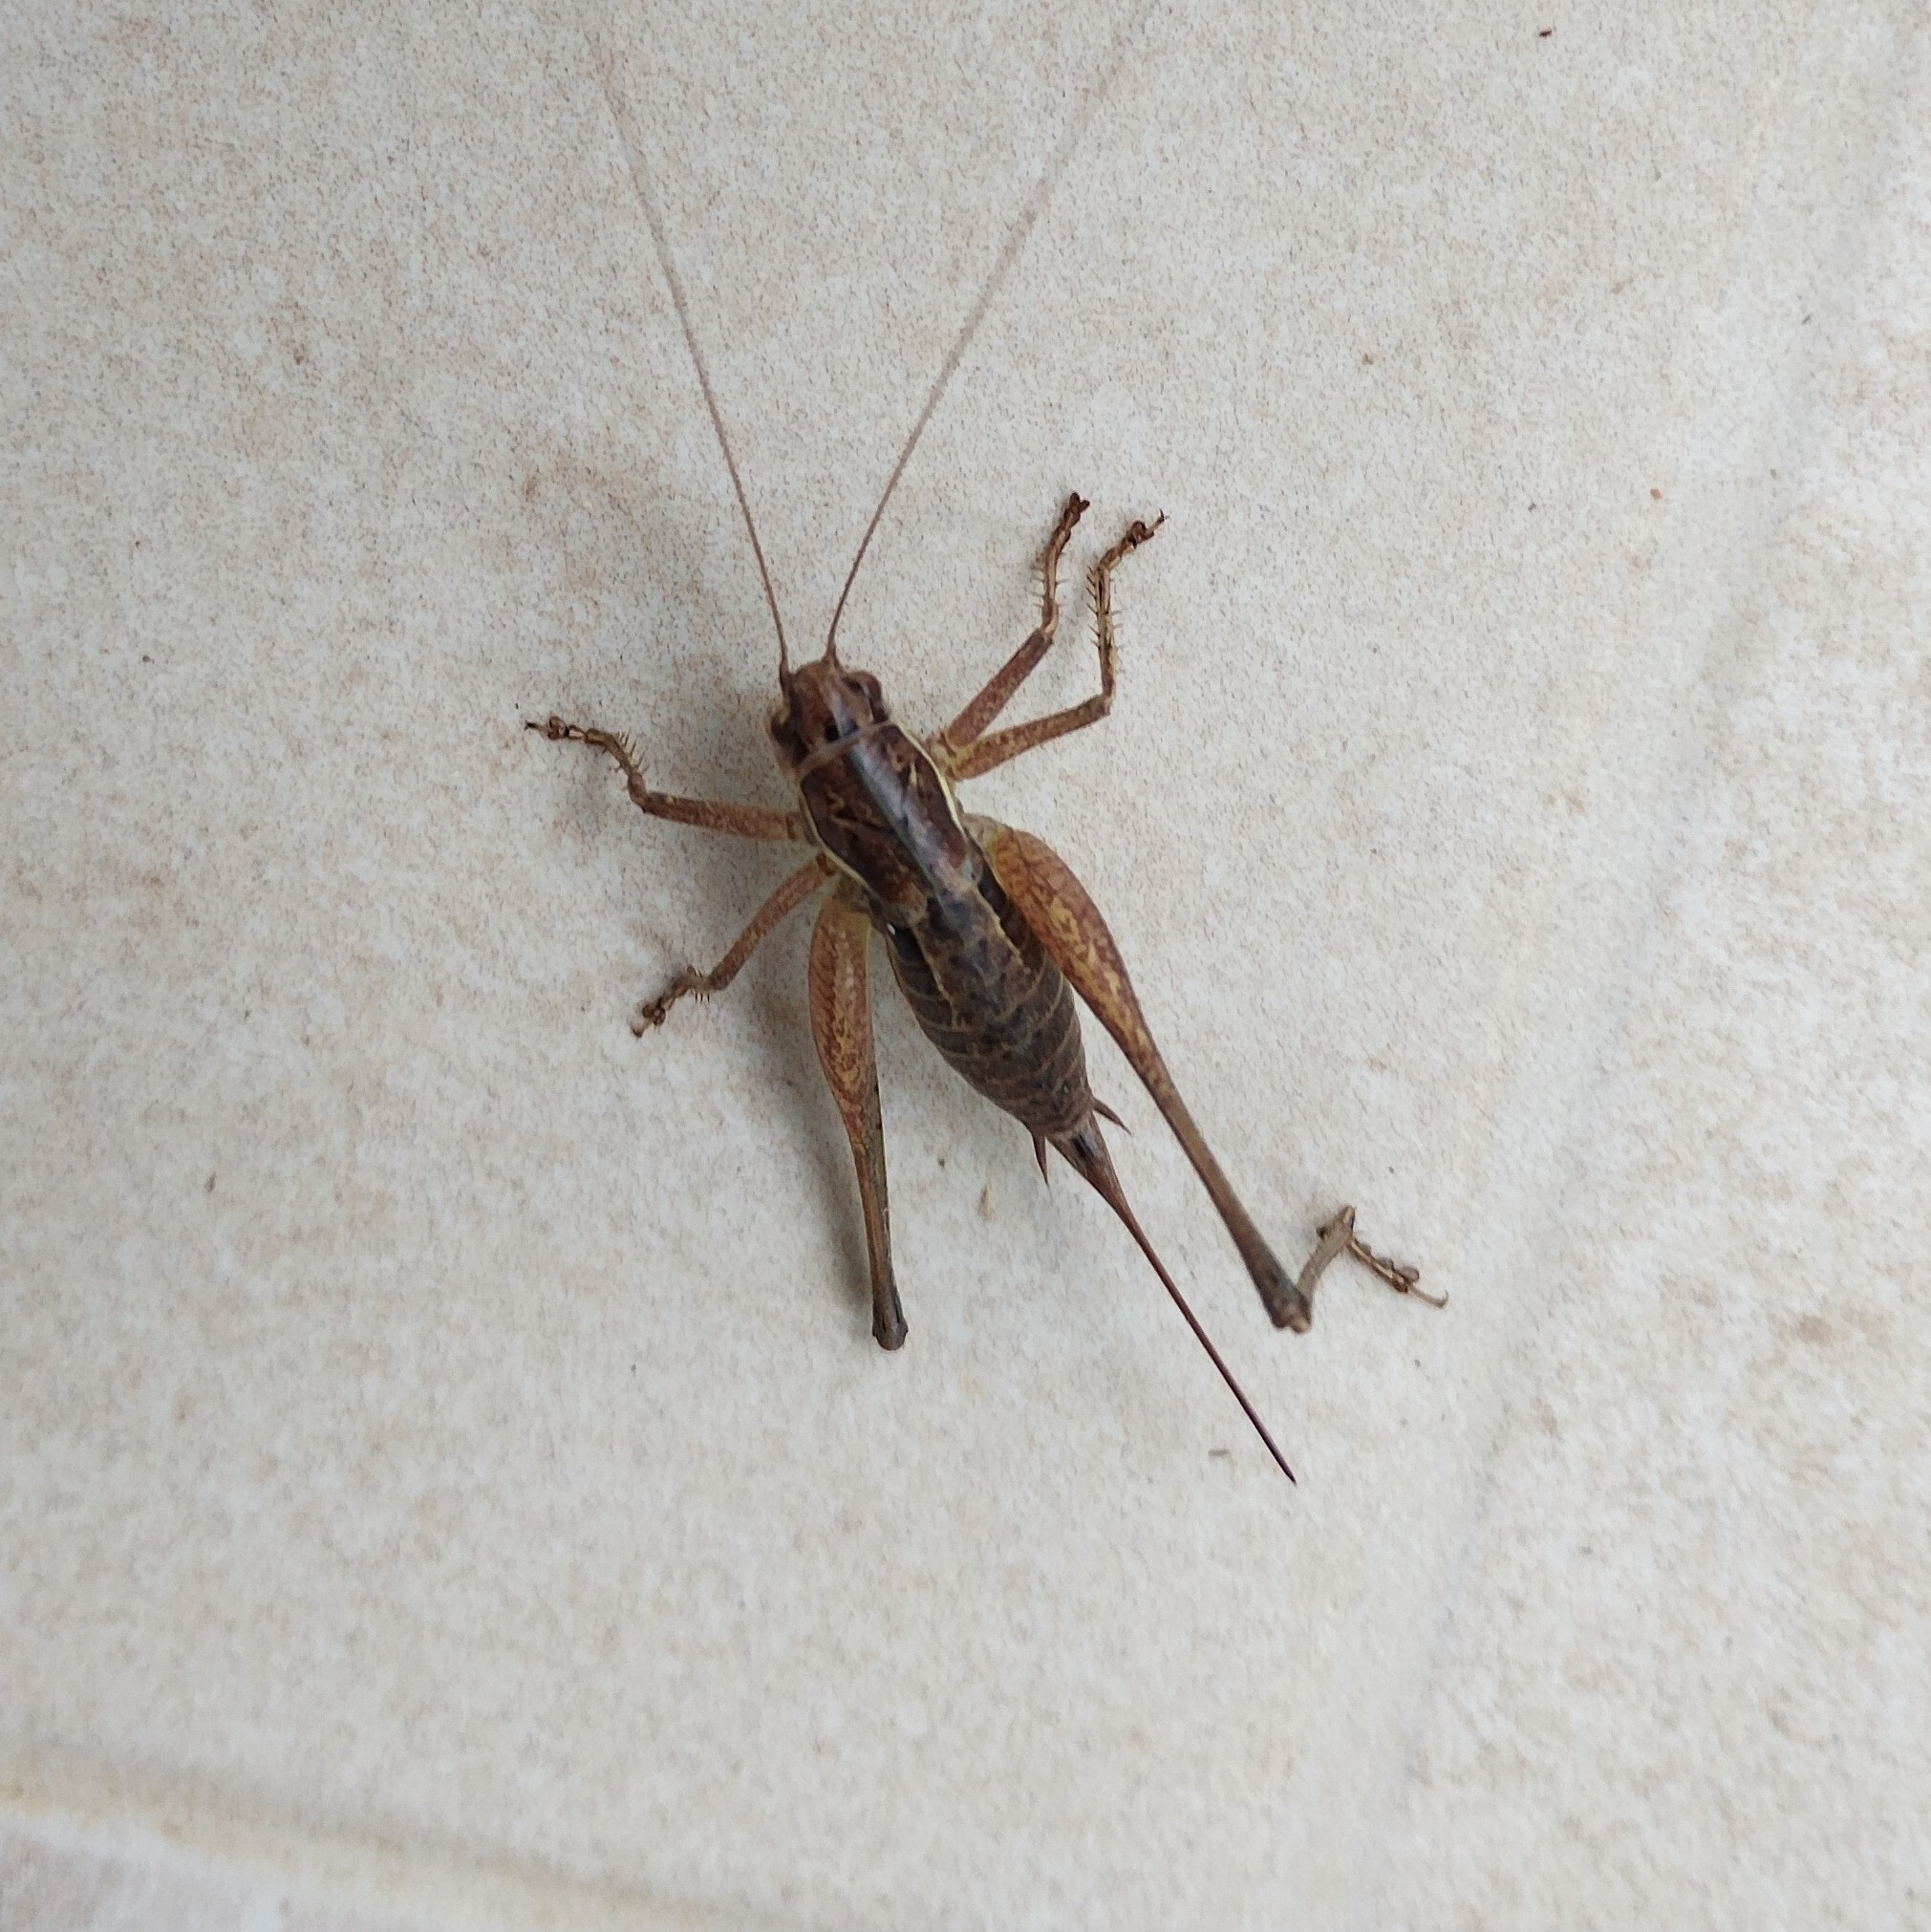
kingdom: Animalia
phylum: Arthropoda
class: Insecta
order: Orthoptera
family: Tettigoniidae
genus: Pachytrachis
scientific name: Pachytrachis gracilis
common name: Graceful bush-cricket
